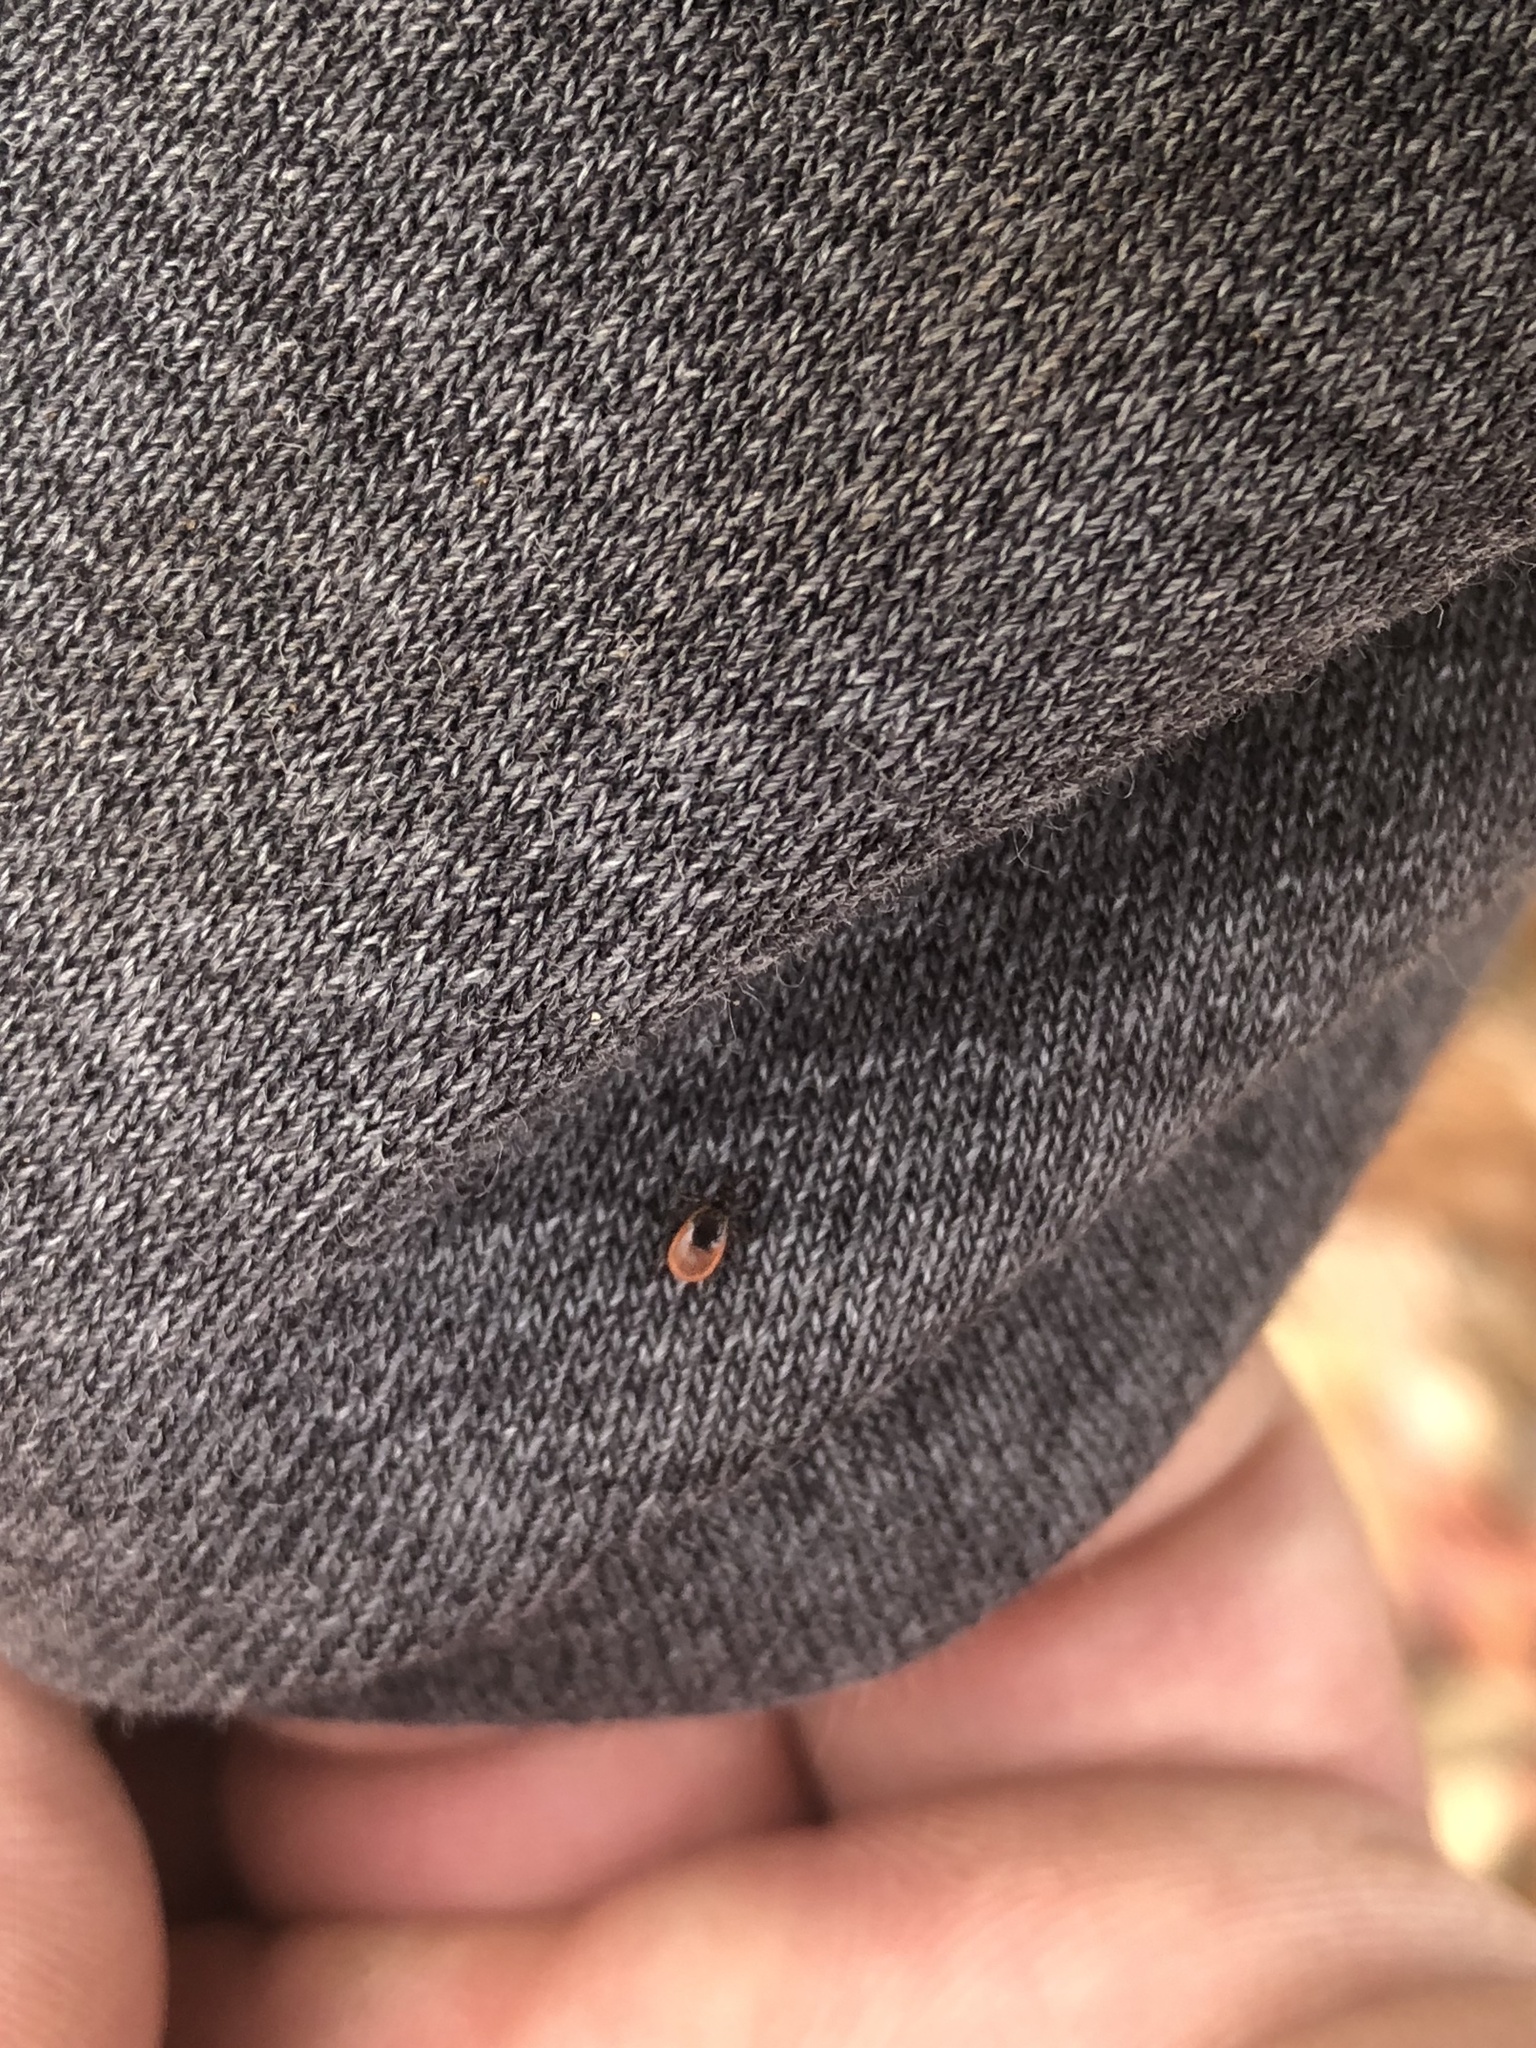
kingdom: Animalia
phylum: Arthropoda
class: Arachnida
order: Ixodida
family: Ixodidae
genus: Ixodes
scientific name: Ixodes scapularis
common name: Black legged tick
